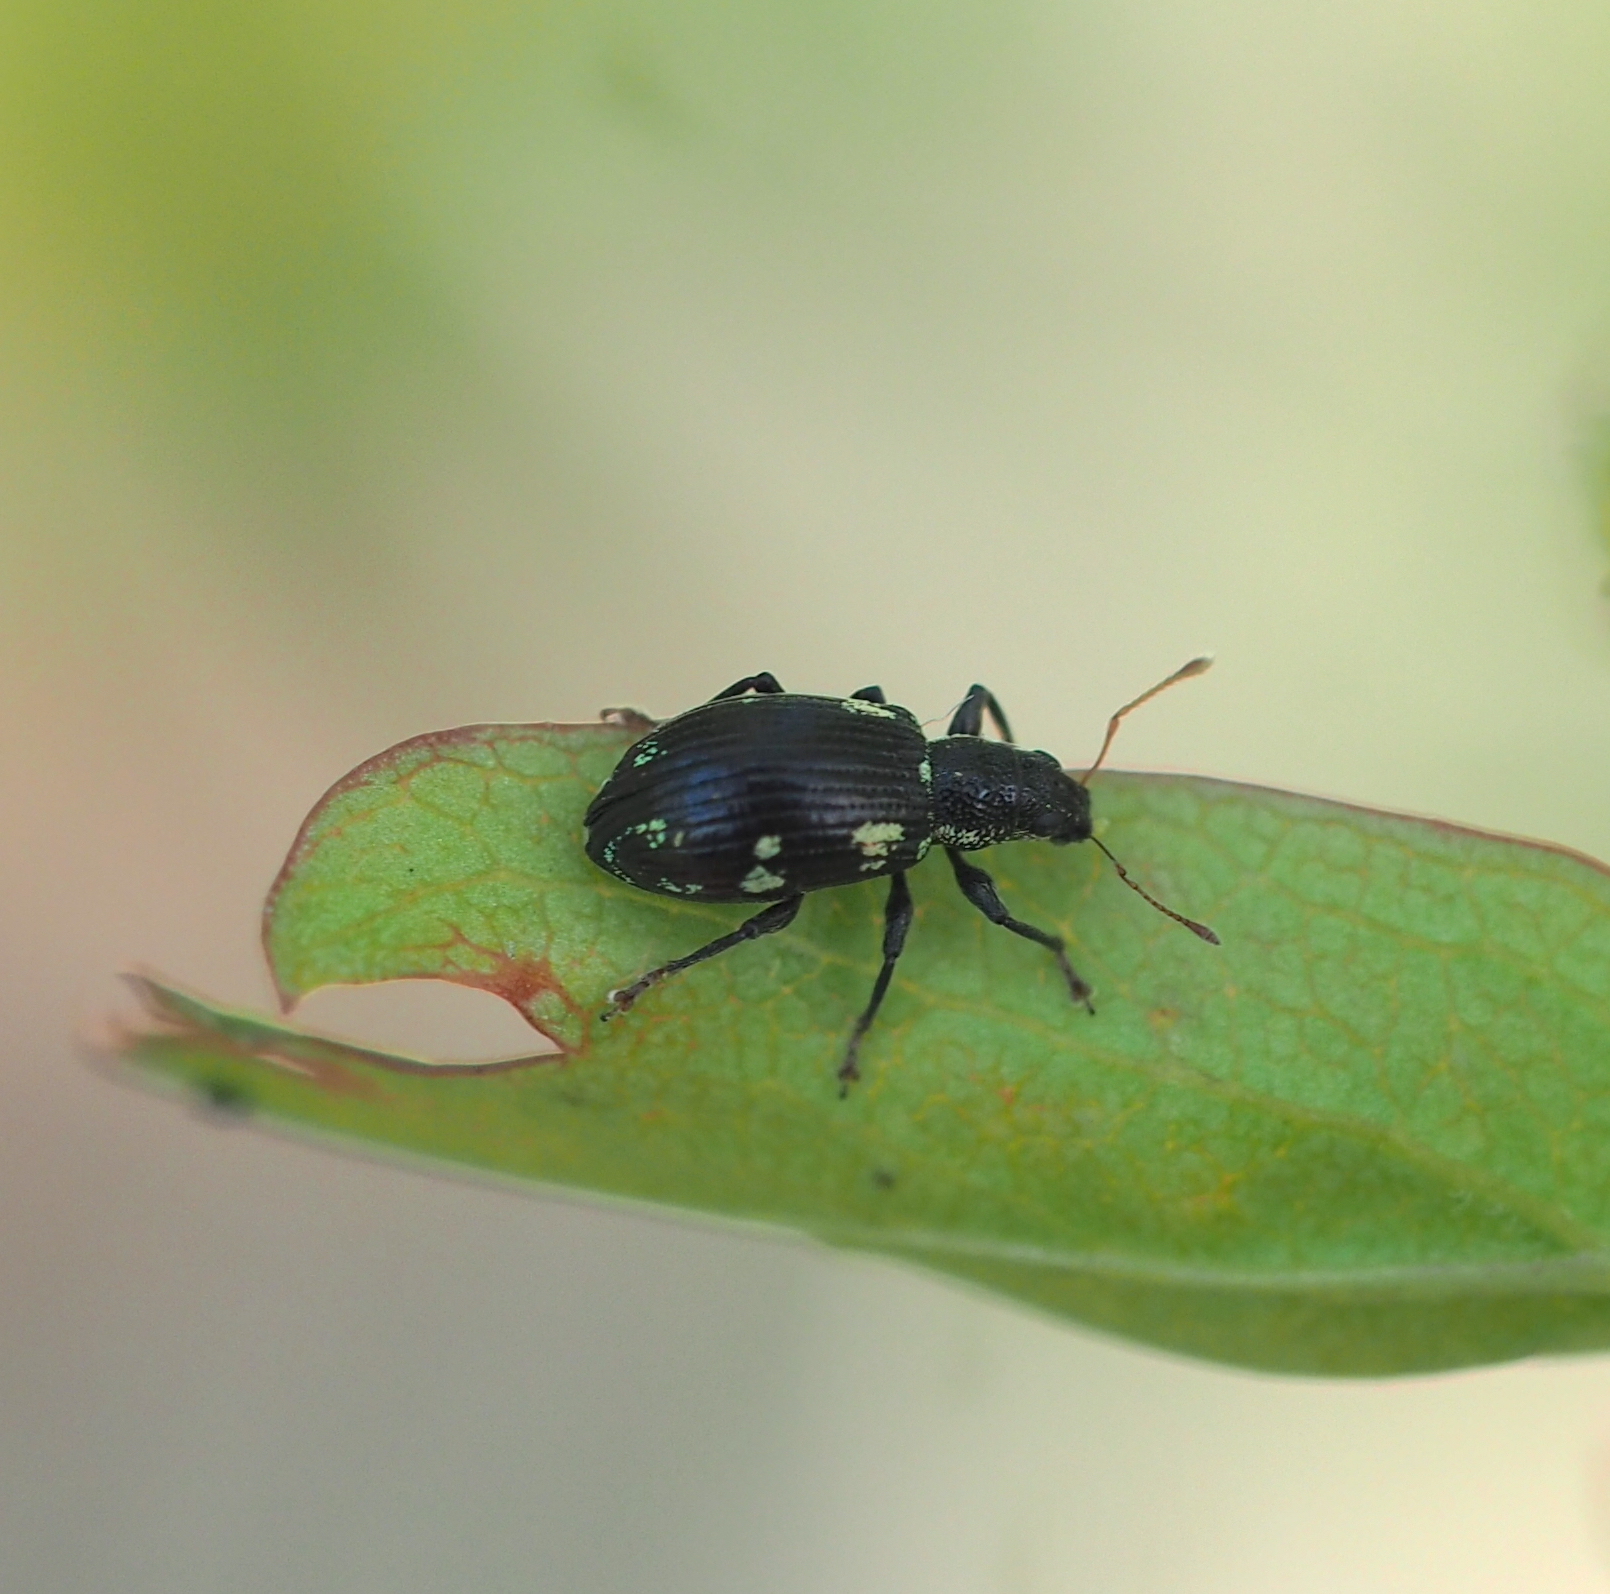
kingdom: Animalia
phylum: Arthropoda
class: Insecta
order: Coleoptera
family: Curculionidae
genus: Polydrusus
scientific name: Polydrusus picus
